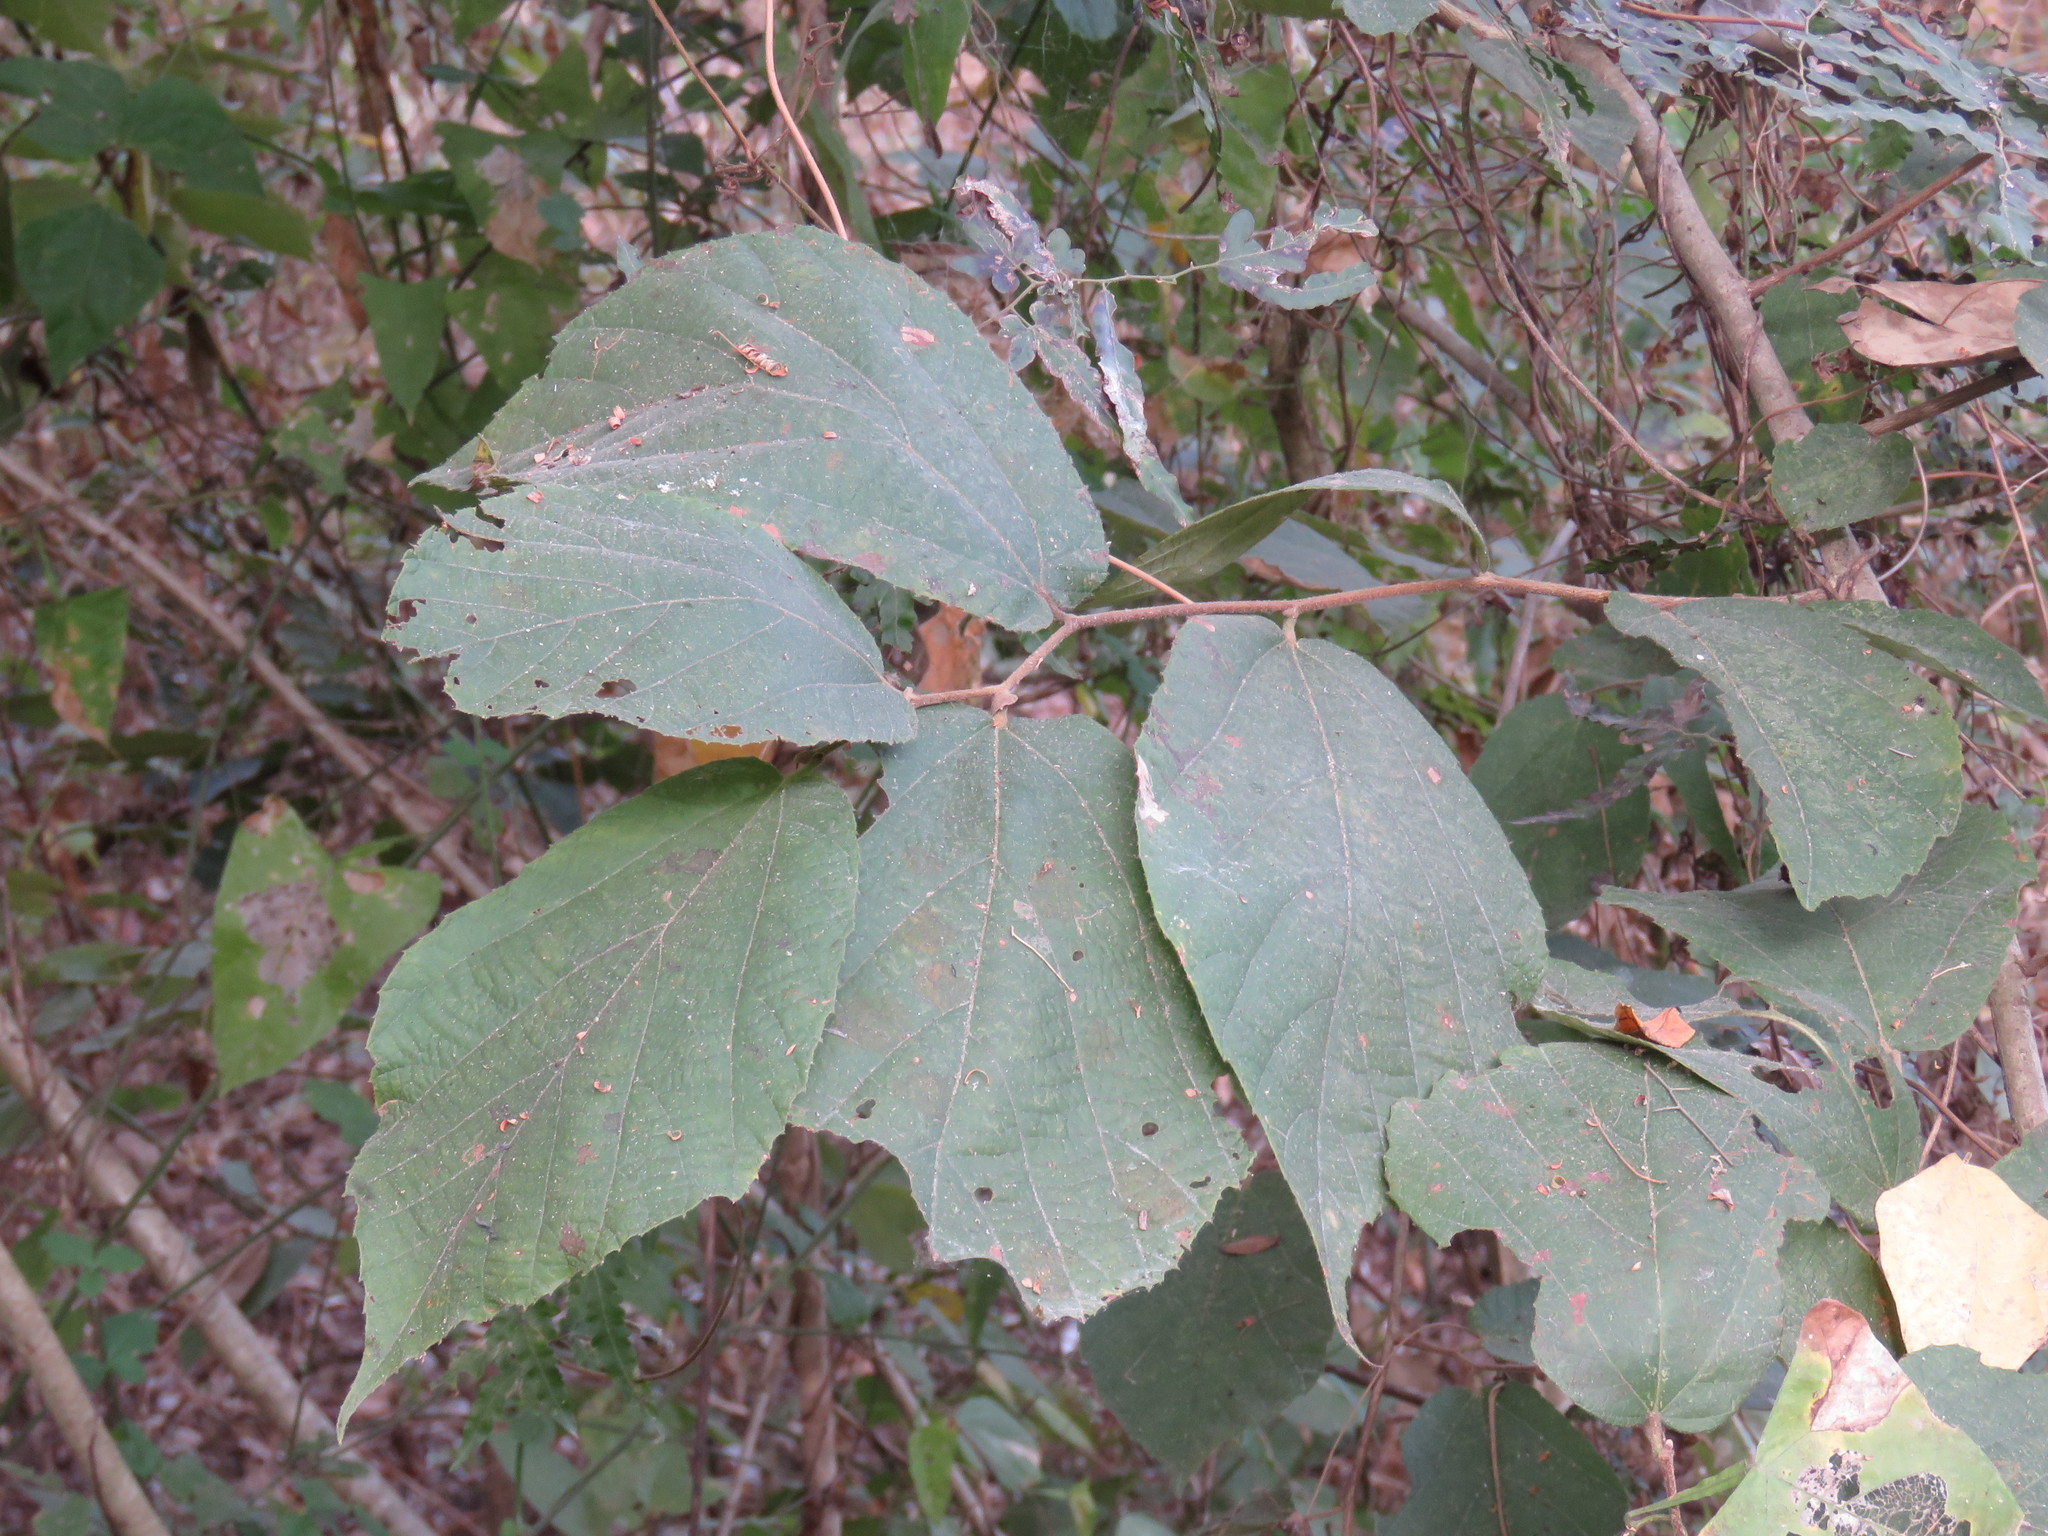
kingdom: Plantae
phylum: Tracheophyta
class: Magnoliopsida
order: Malvales
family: Malvaceae
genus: Luehea
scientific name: Luehea candida
